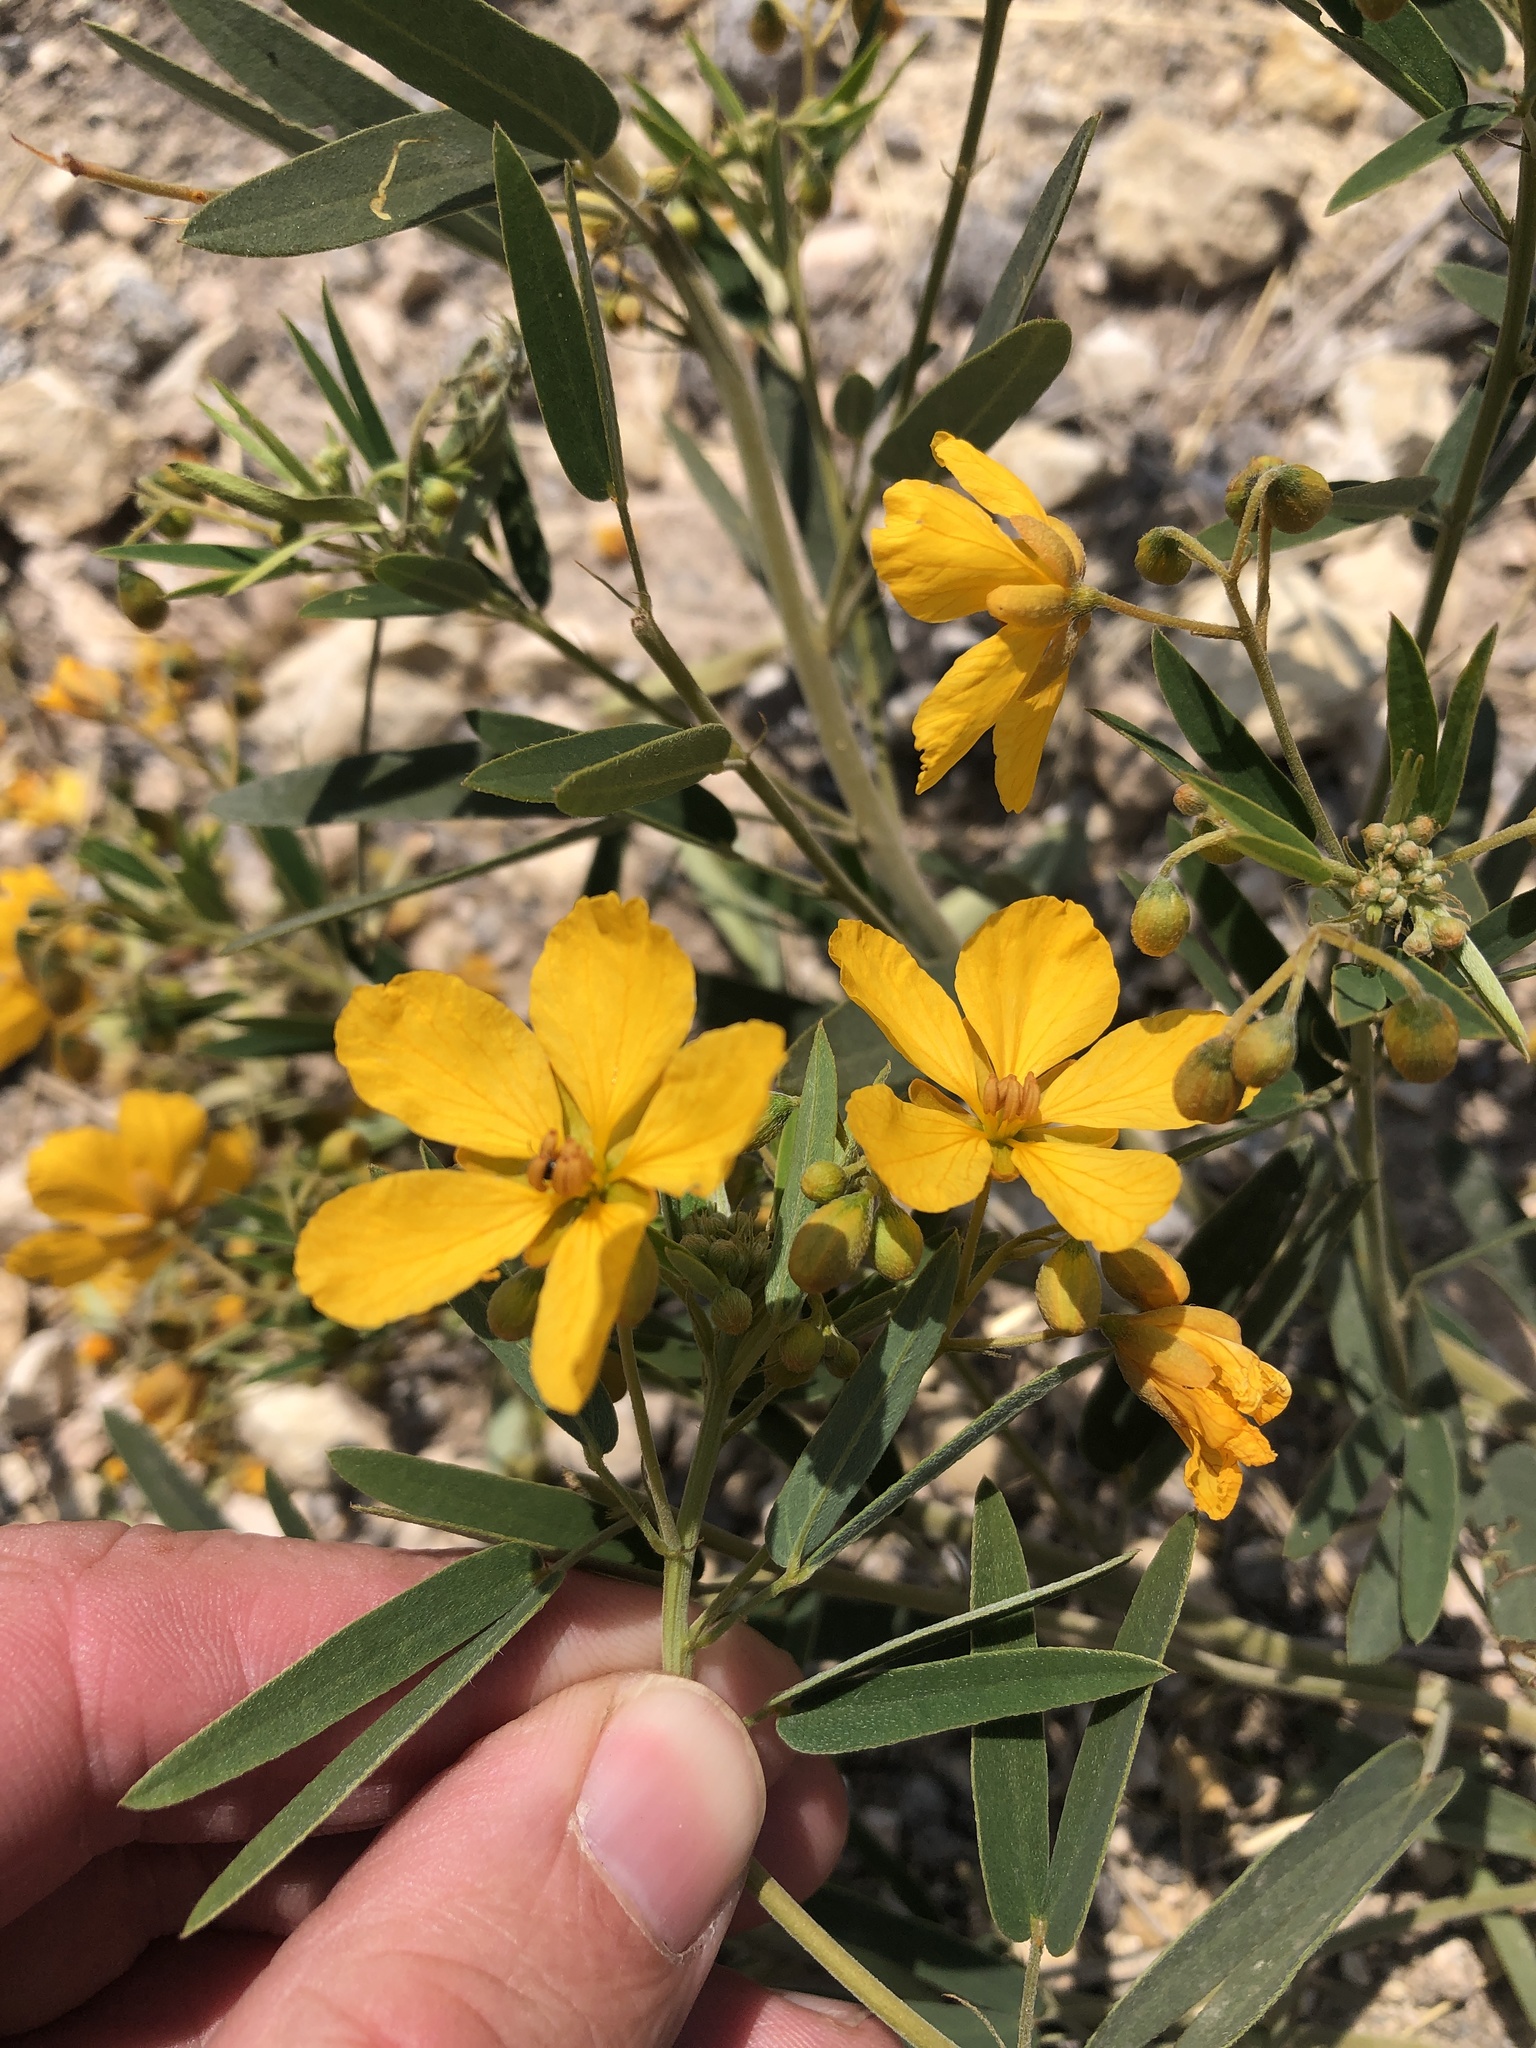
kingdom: Plantae
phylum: Tracheophyta
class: Magnoliopsida
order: Fabales
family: Fabaceae
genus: Senna
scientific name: Senna roemeriana
